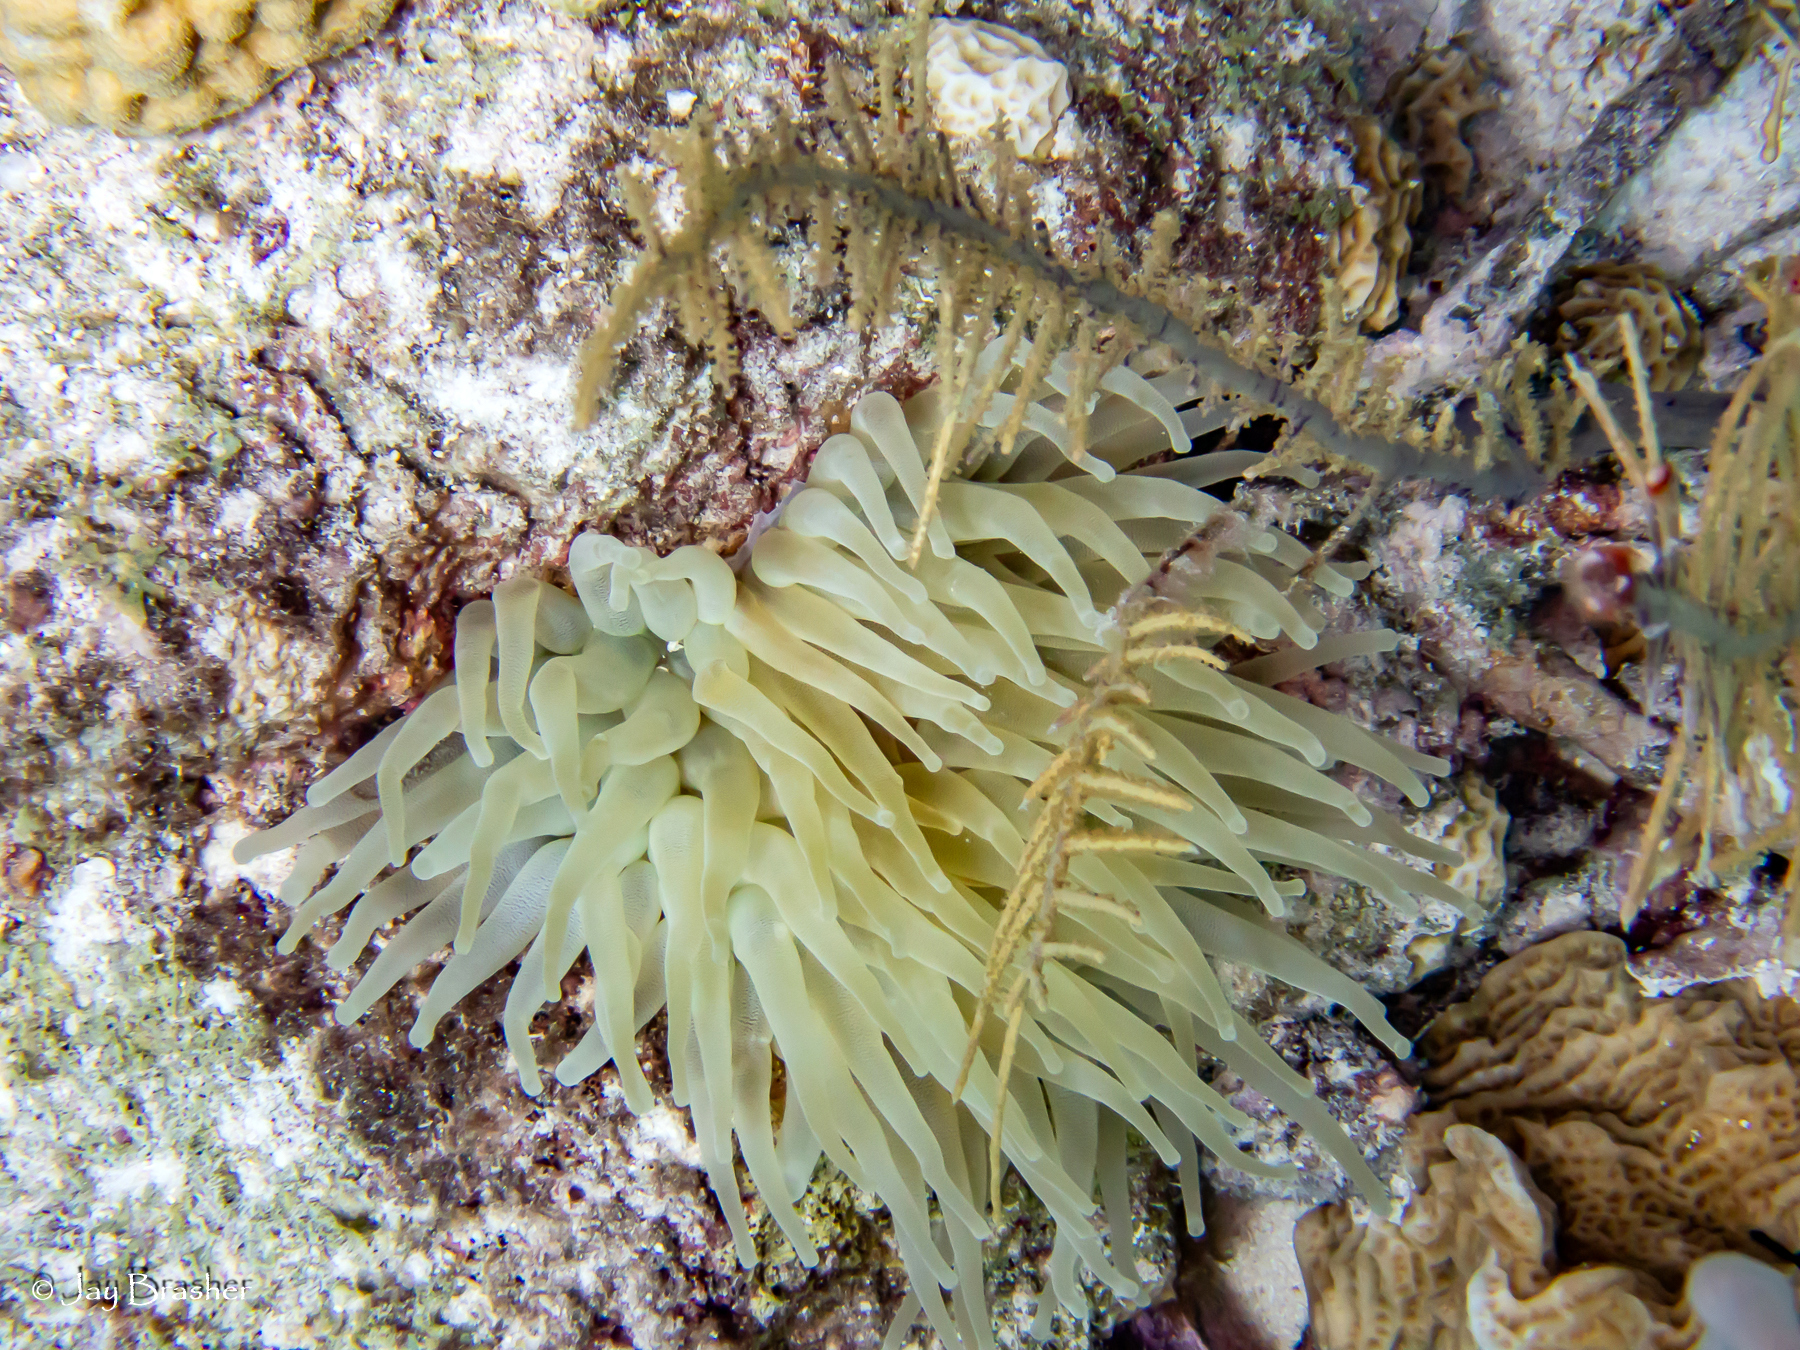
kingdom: Animalia
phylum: Cnidaria
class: Anthozoa
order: Actiniaria
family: Actiniidae
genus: Condylactis
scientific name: Condylactis gigantea
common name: Giant caribbean anemone
